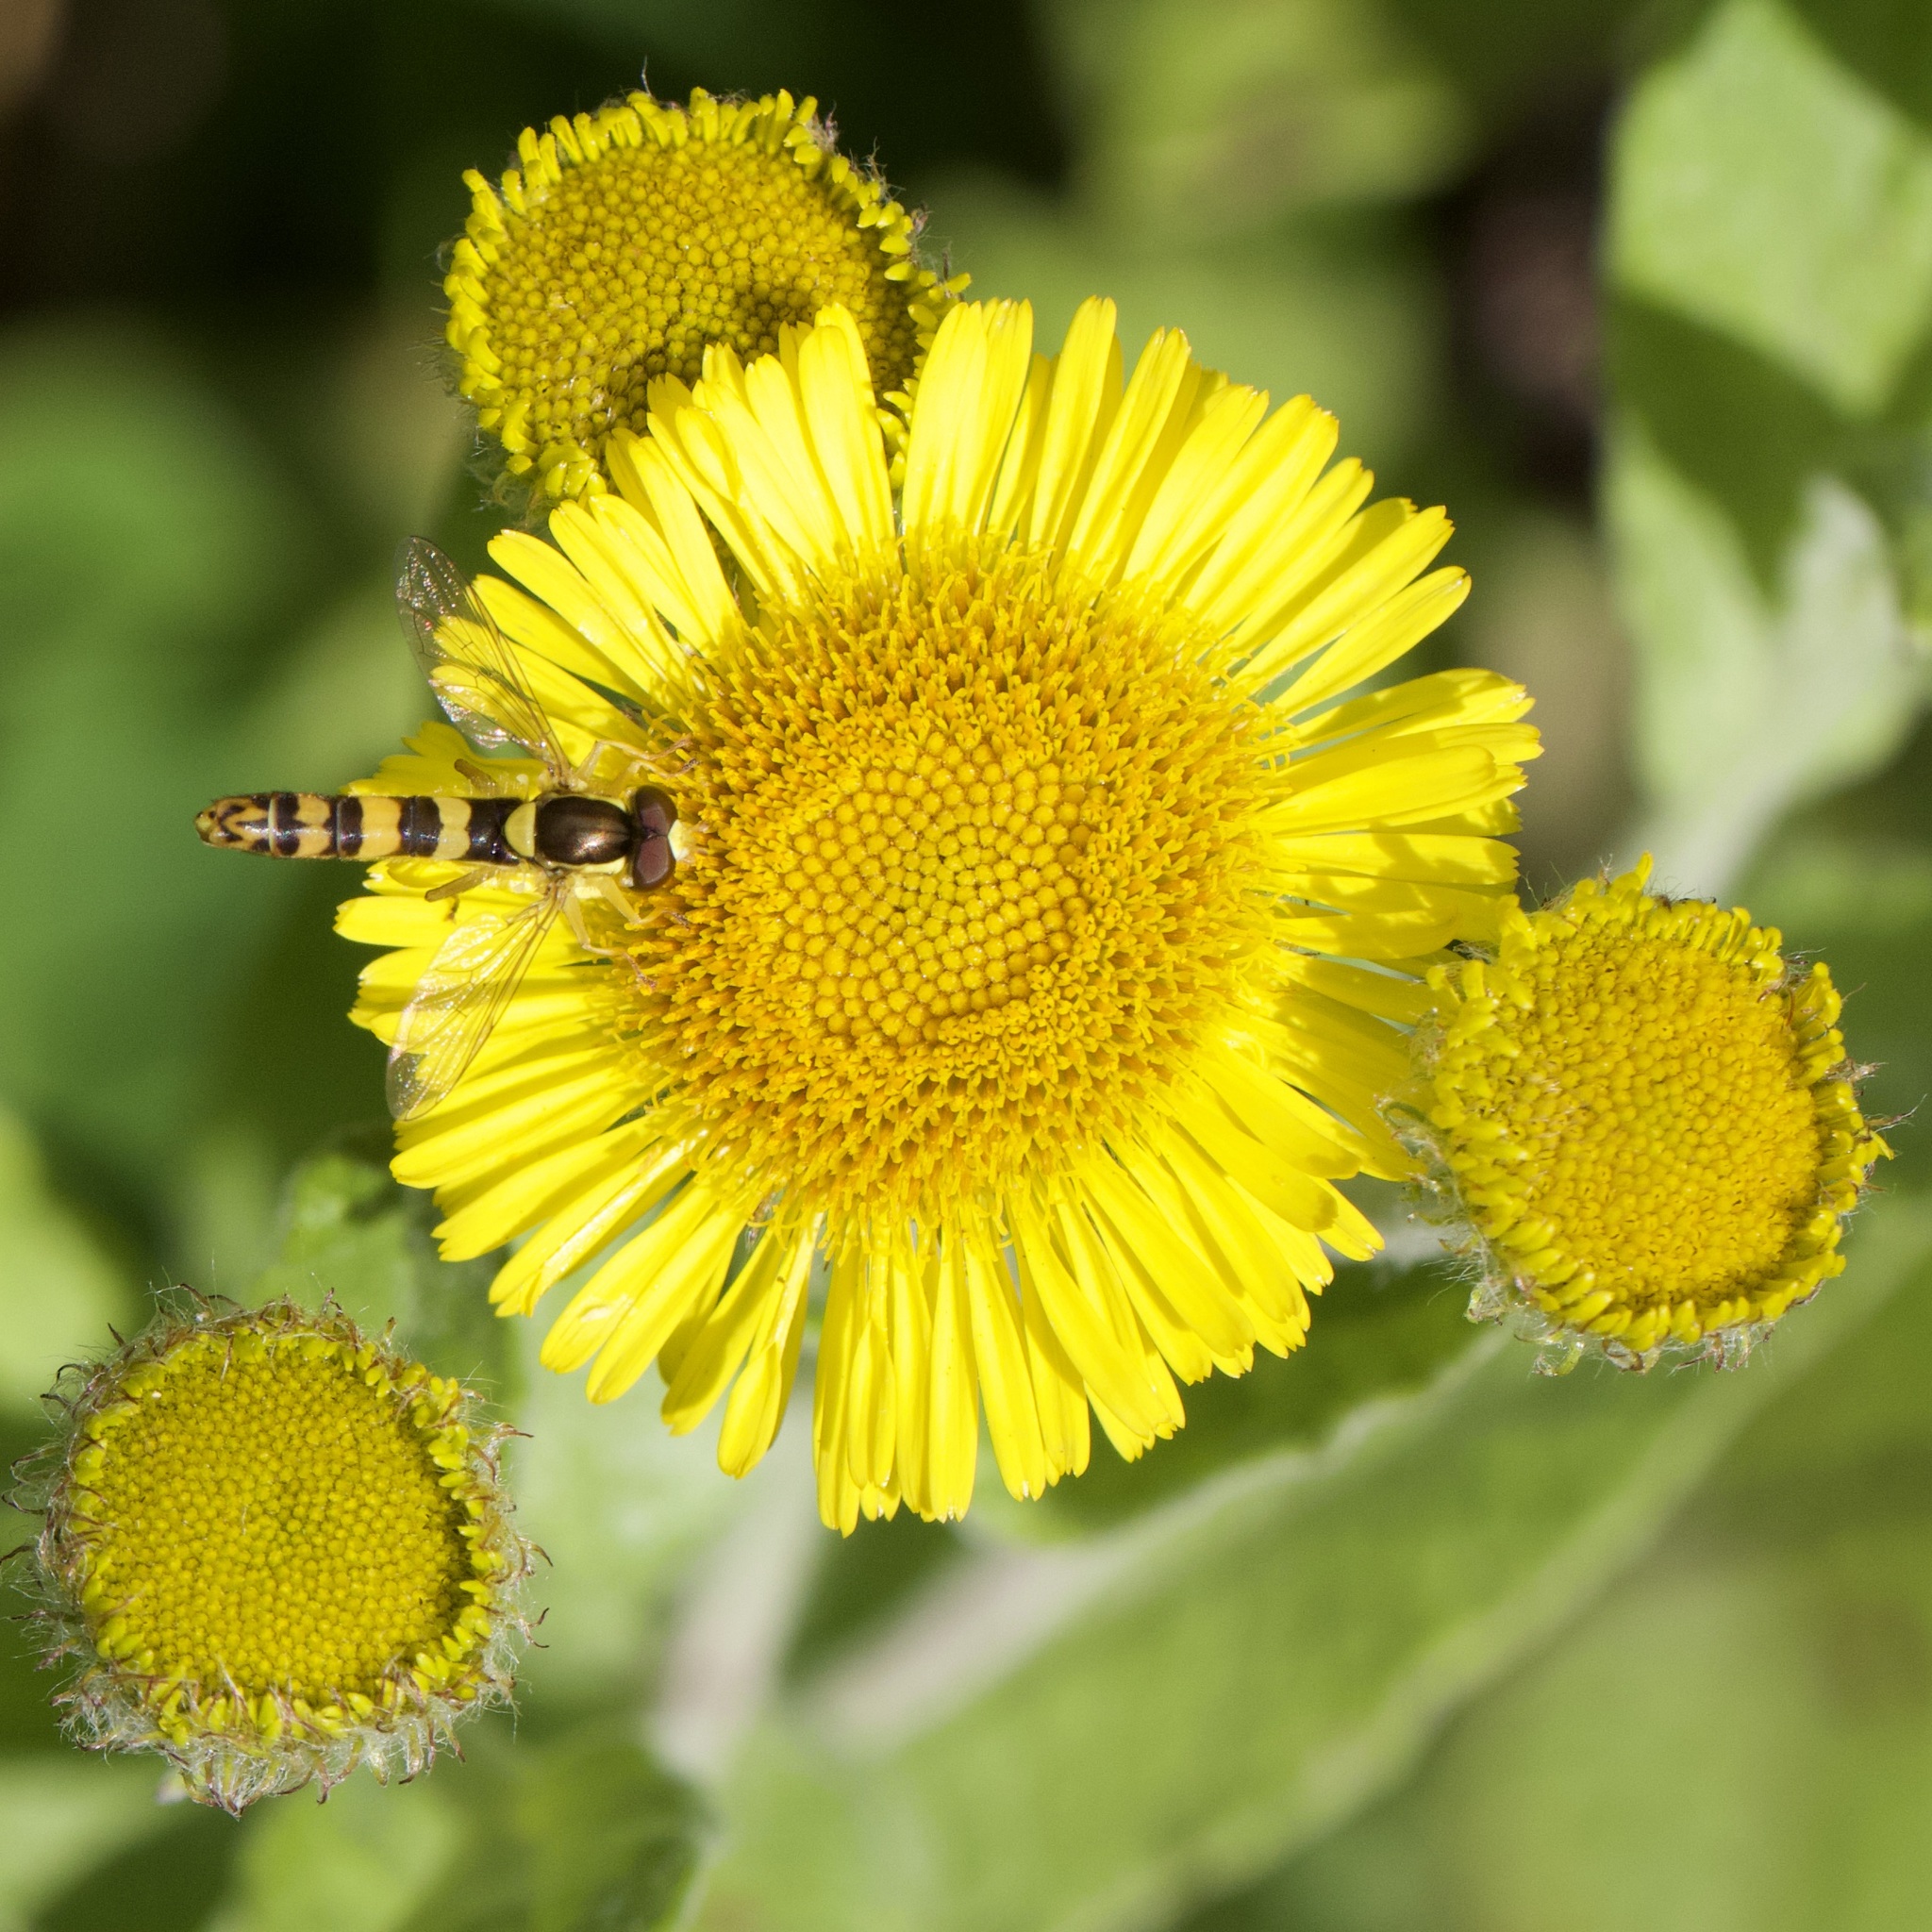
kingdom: Animalia
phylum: Arthropoda
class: Insecta
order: Diptera
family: Syrphidae
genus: Sphaerophoria
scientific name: Sphaerophoria scripta
